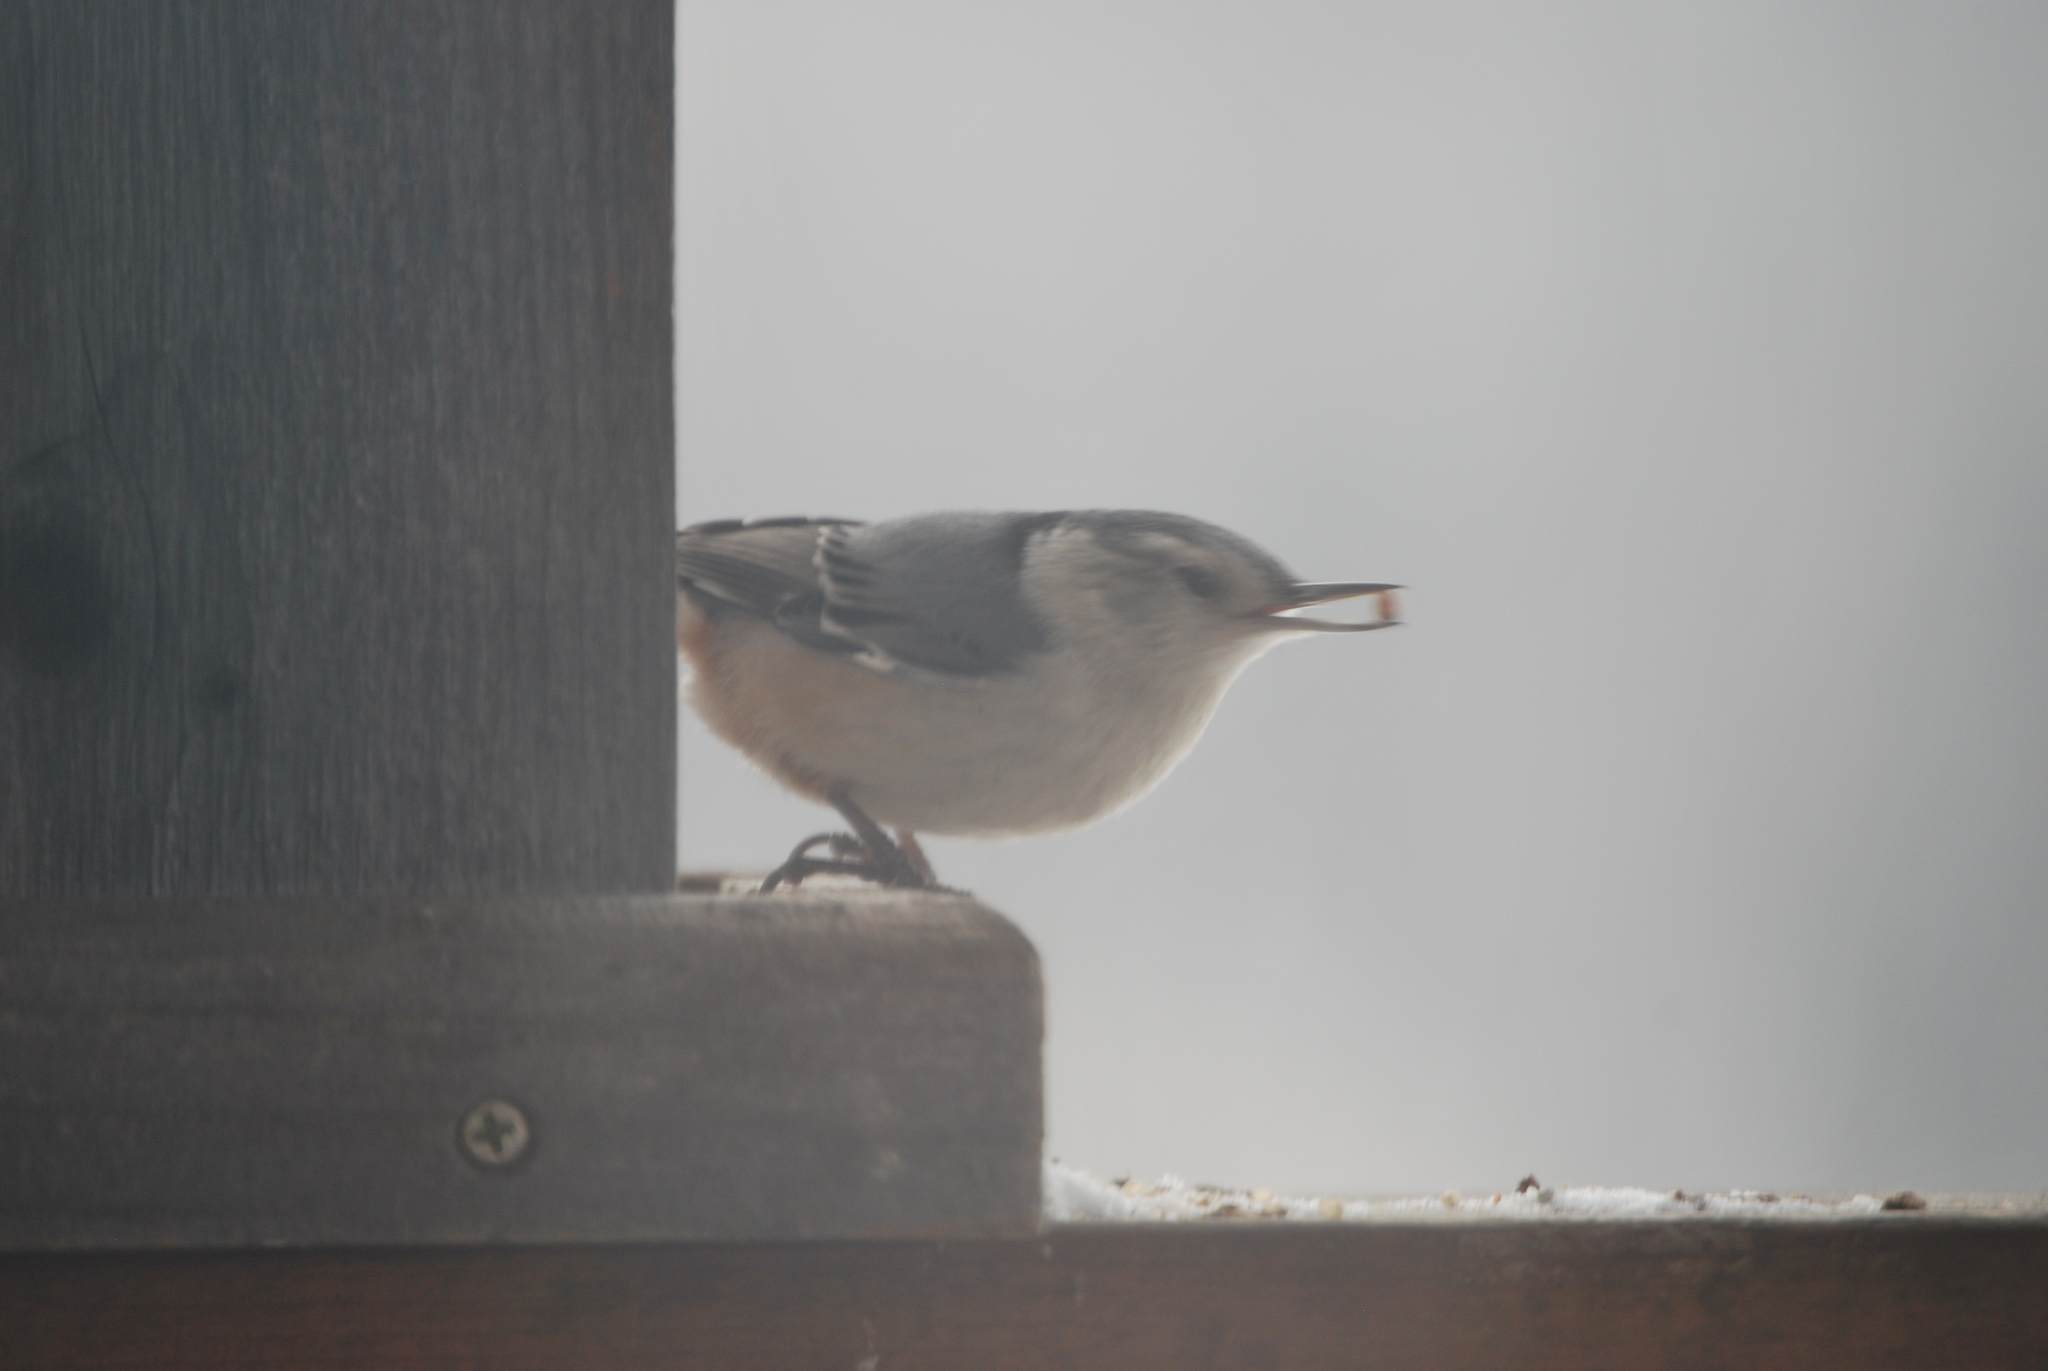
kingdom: Animalia
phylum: Chordata
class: Aves
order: Passeriformes
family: Sittidae
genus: Sitta
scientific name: Sitta carolinensis
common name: White-breasted nuthatch
